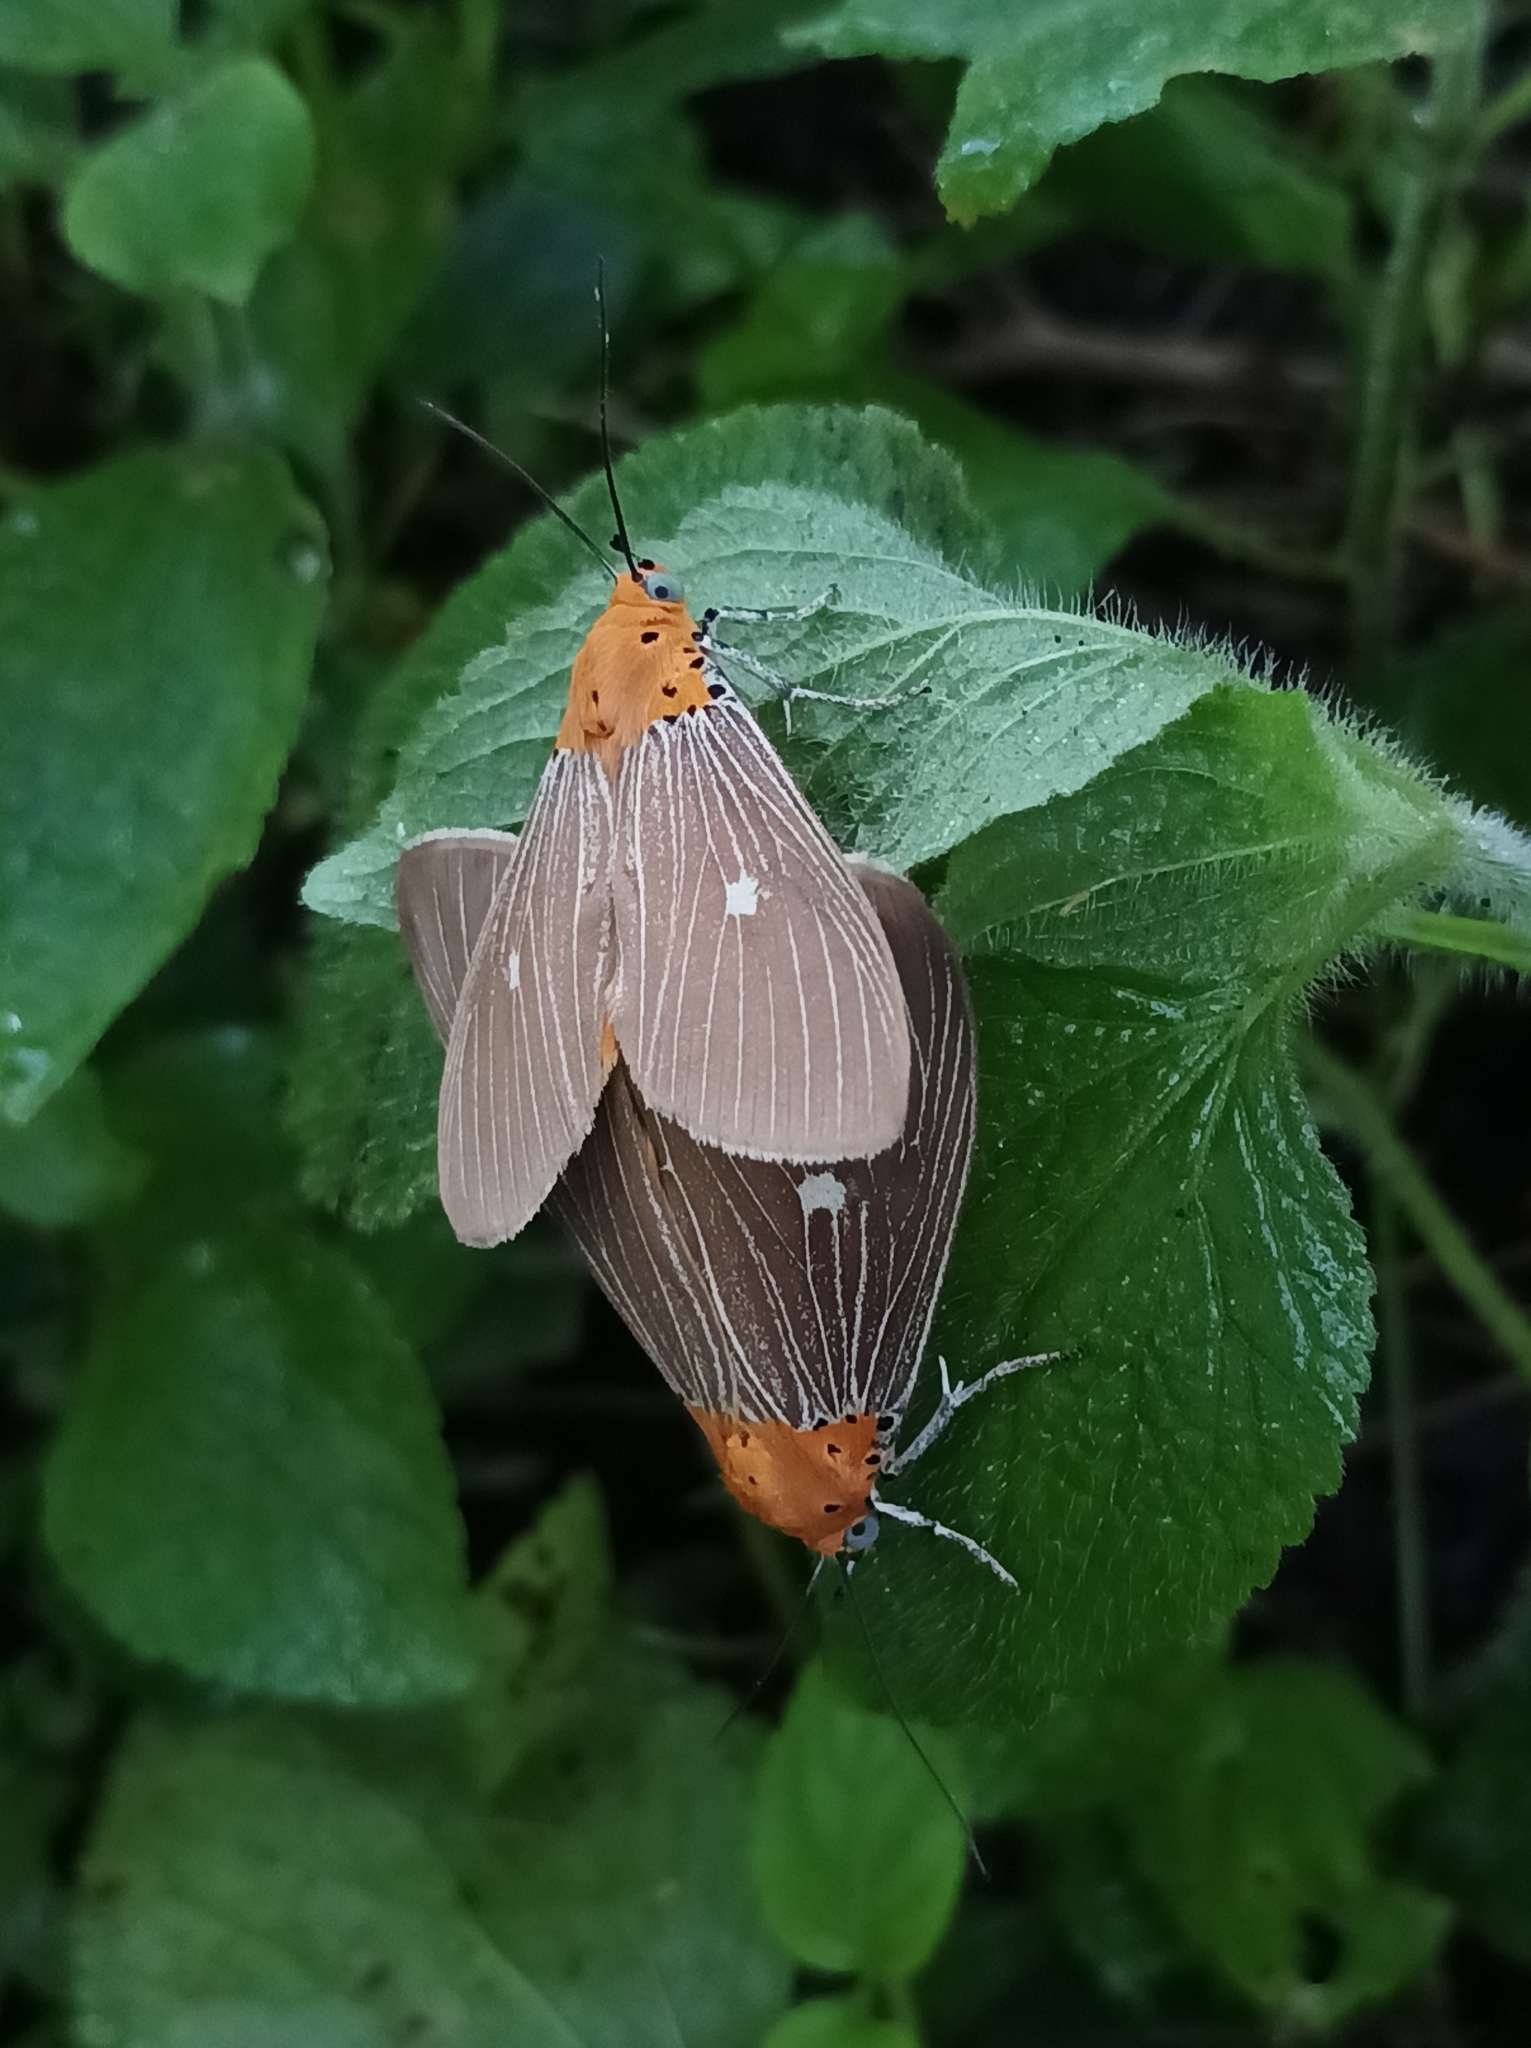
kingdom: Animalia
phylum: Arthropoda
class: Insecta
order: Lepidoptera
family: Erebidae
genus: Asota
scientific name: Asota caricae
